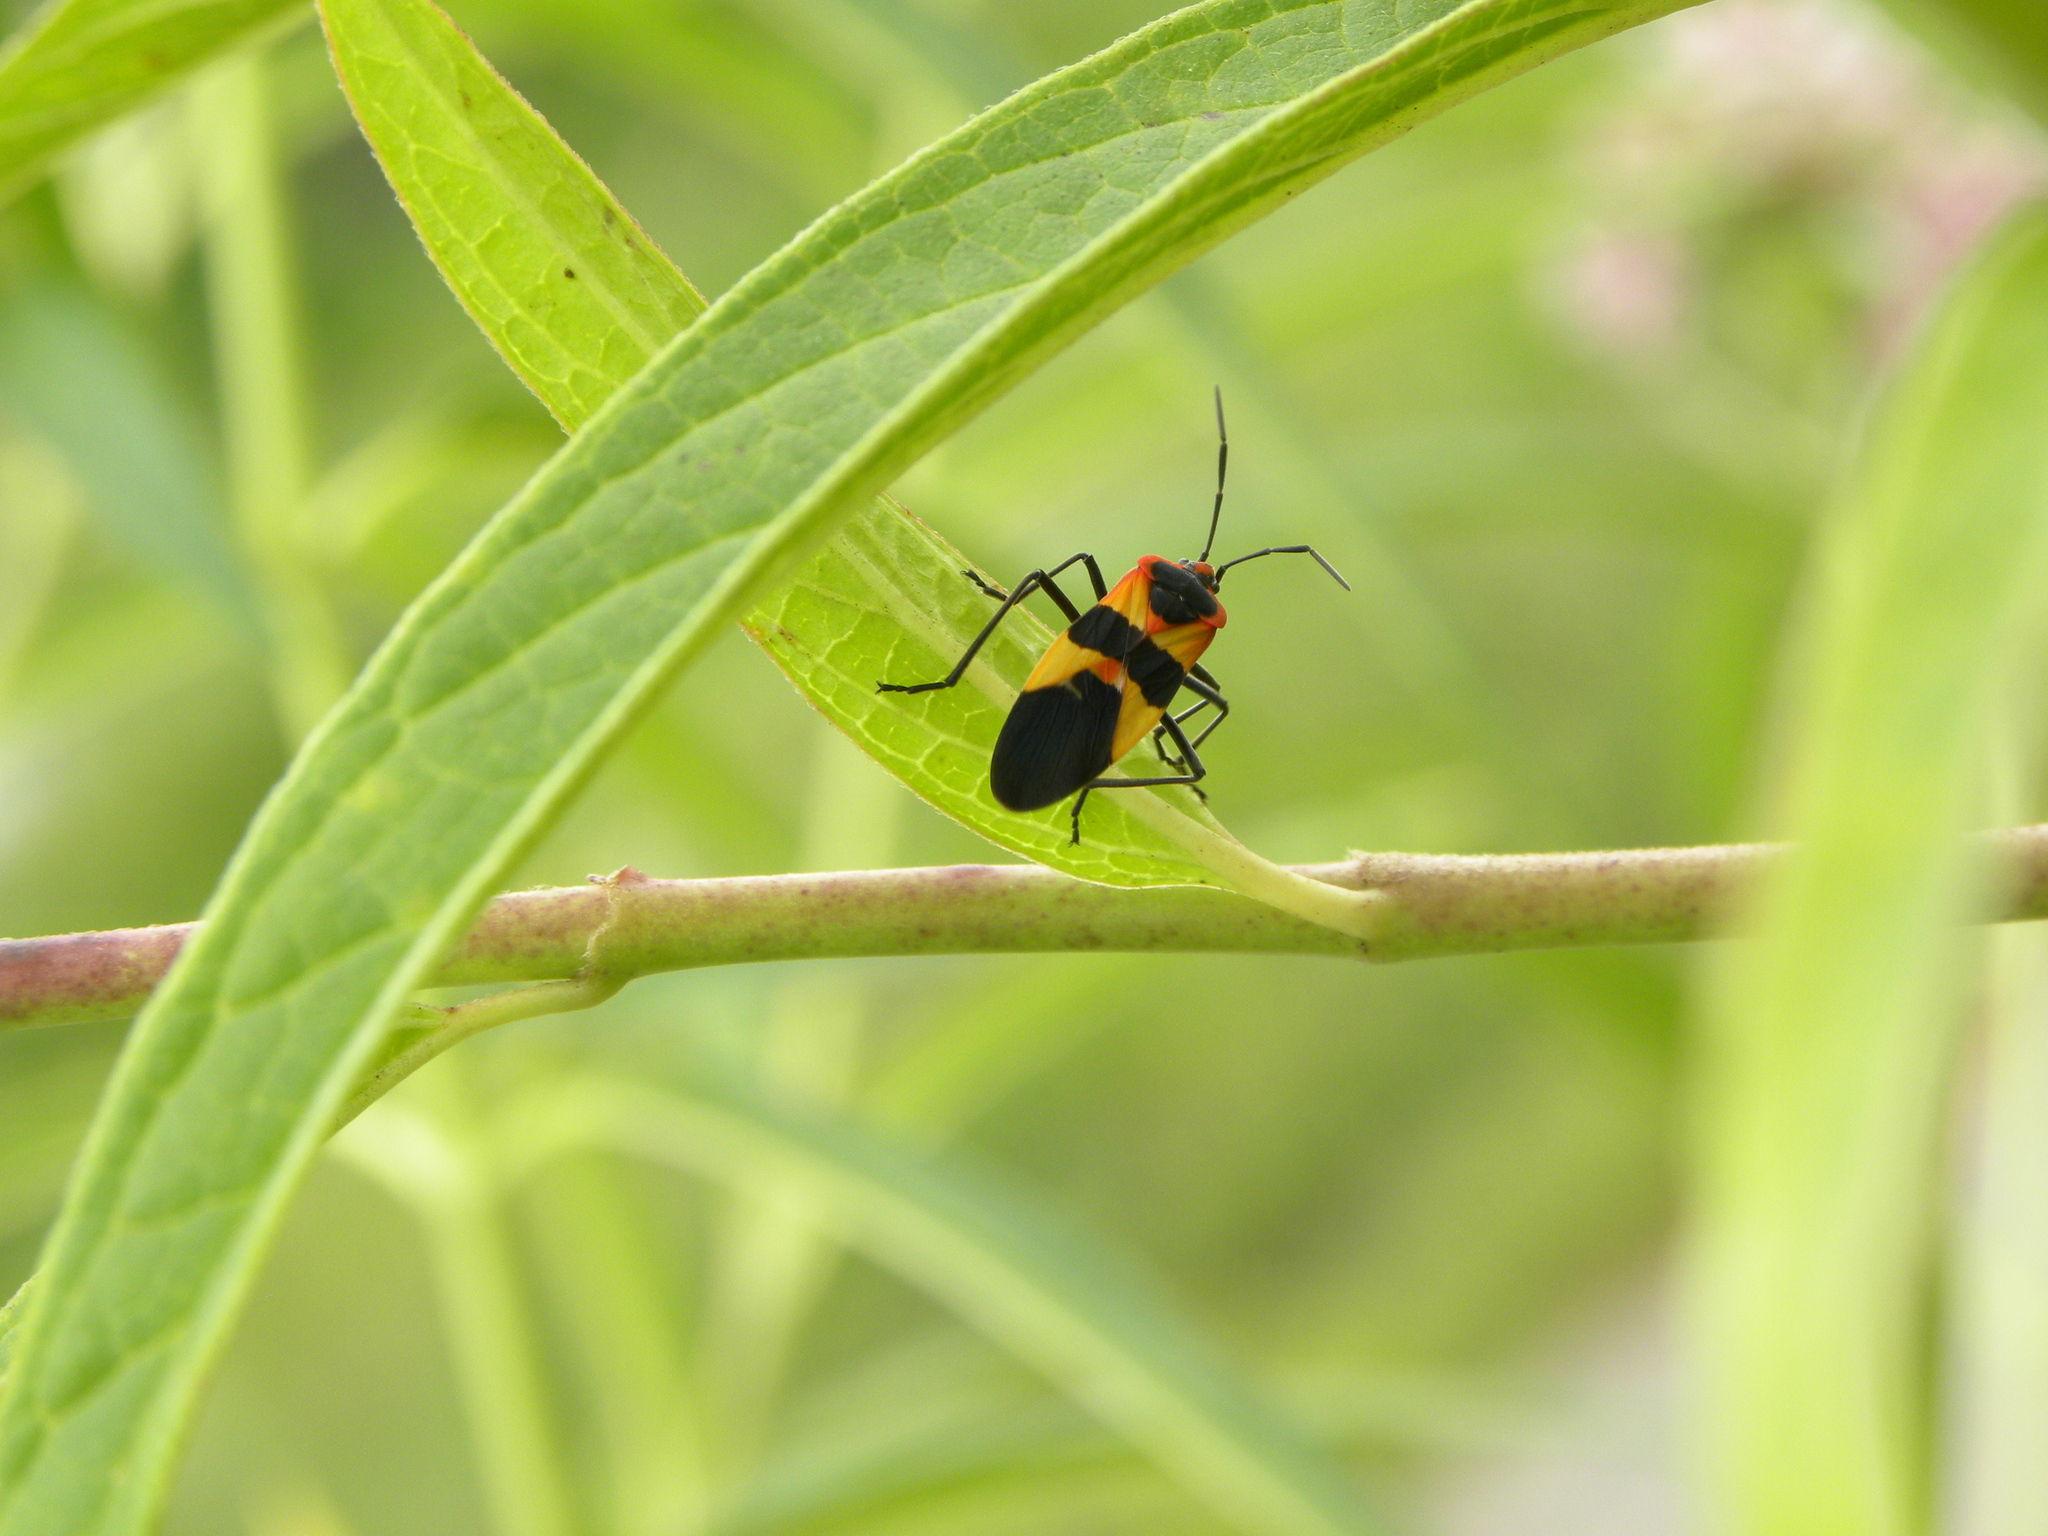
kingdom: Animalia
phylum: Arthropoda
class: Insecta
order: Hemiptera
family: Lygaeidae
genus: Oncopeltus
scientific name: Oncopeltus fasciatus
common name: Large milkweed bug
